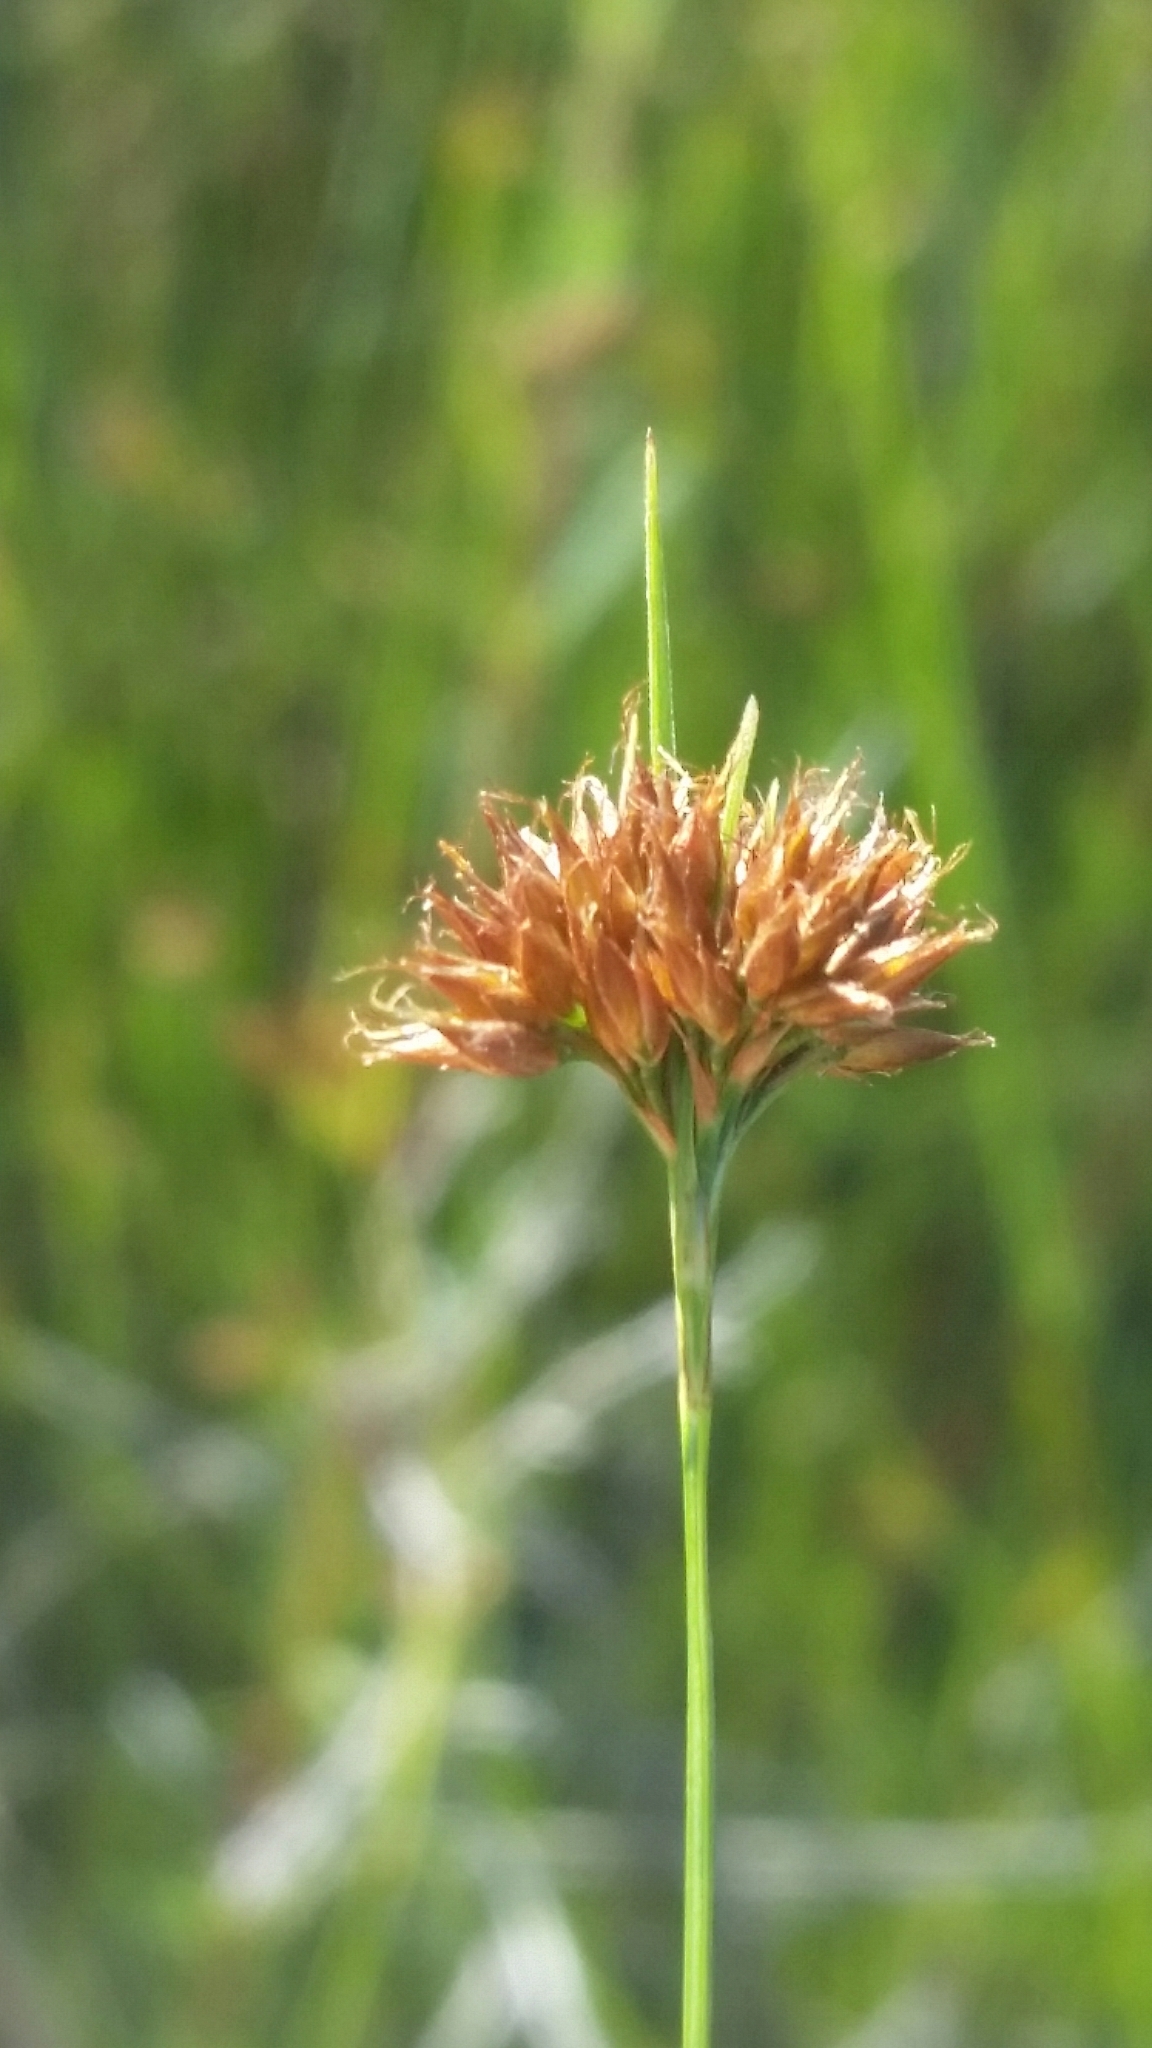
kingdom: Plantae
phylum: Tracheophyta
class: Liliopsida
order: Poales
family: Cyperaceae
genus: Rhynchospora
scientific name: Rhynchospora filifolia
